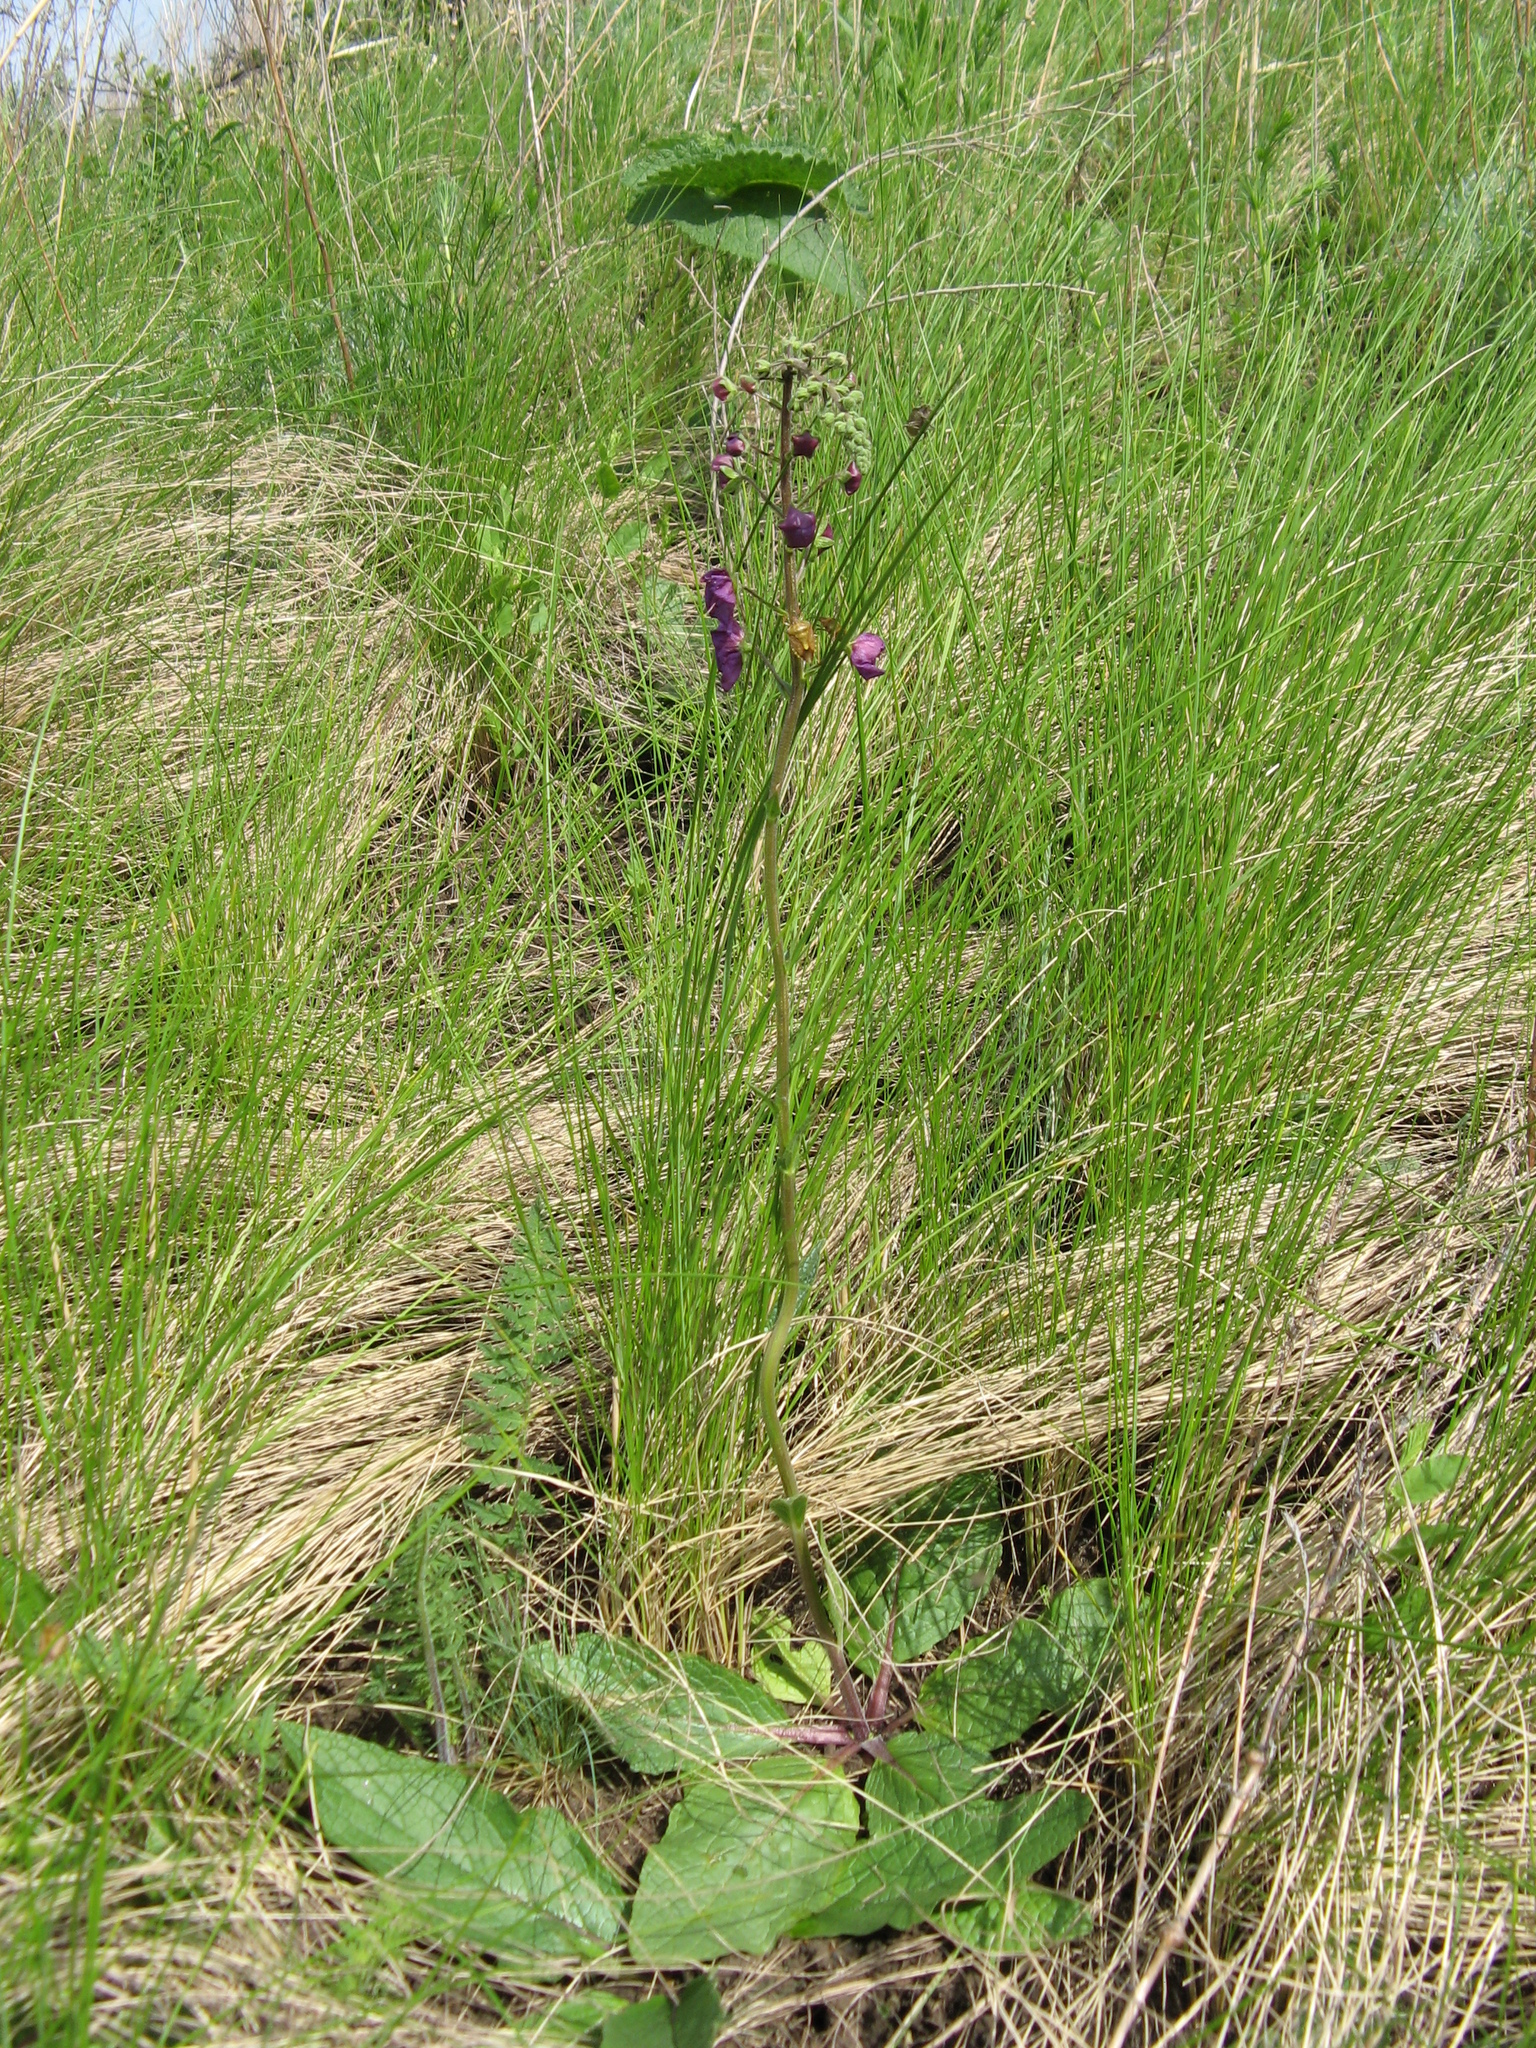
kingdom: Plantae
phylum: Tracheophyta
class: Magnoliopsida
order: Lamiales
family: Scrophulariaceae
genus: Verbascum
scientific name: Verbascum phoeniceum
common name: Purple mullein
